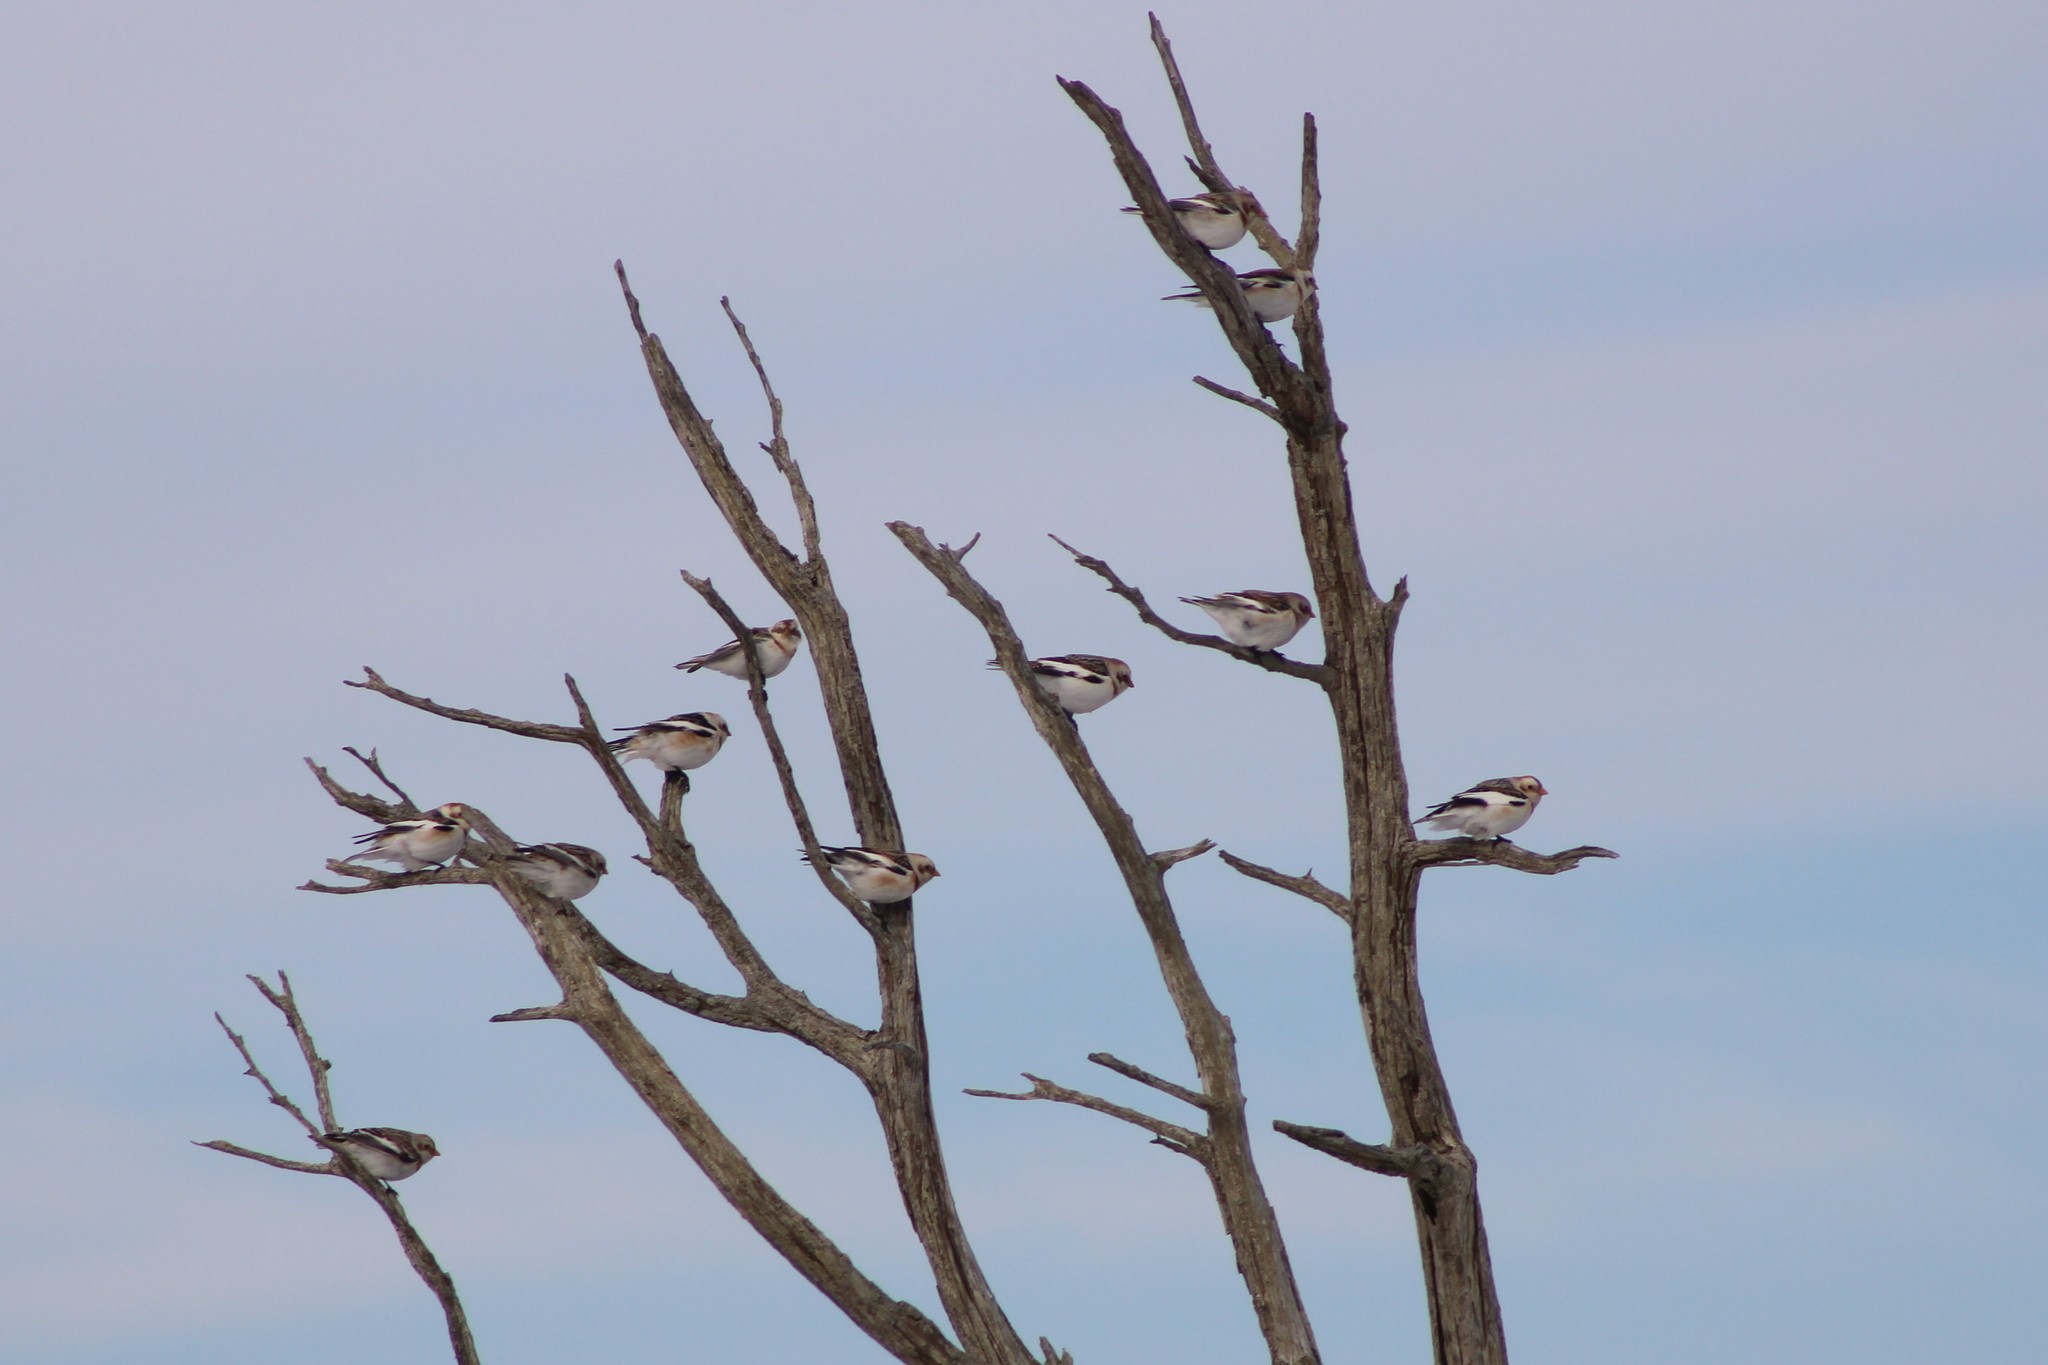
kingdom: Animalia
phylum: Chordata
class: Aves
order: Passeriformes
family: Calcariidae
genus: Plectrophenax
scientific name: Plectrophenax nivalis
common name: Snow bunting
